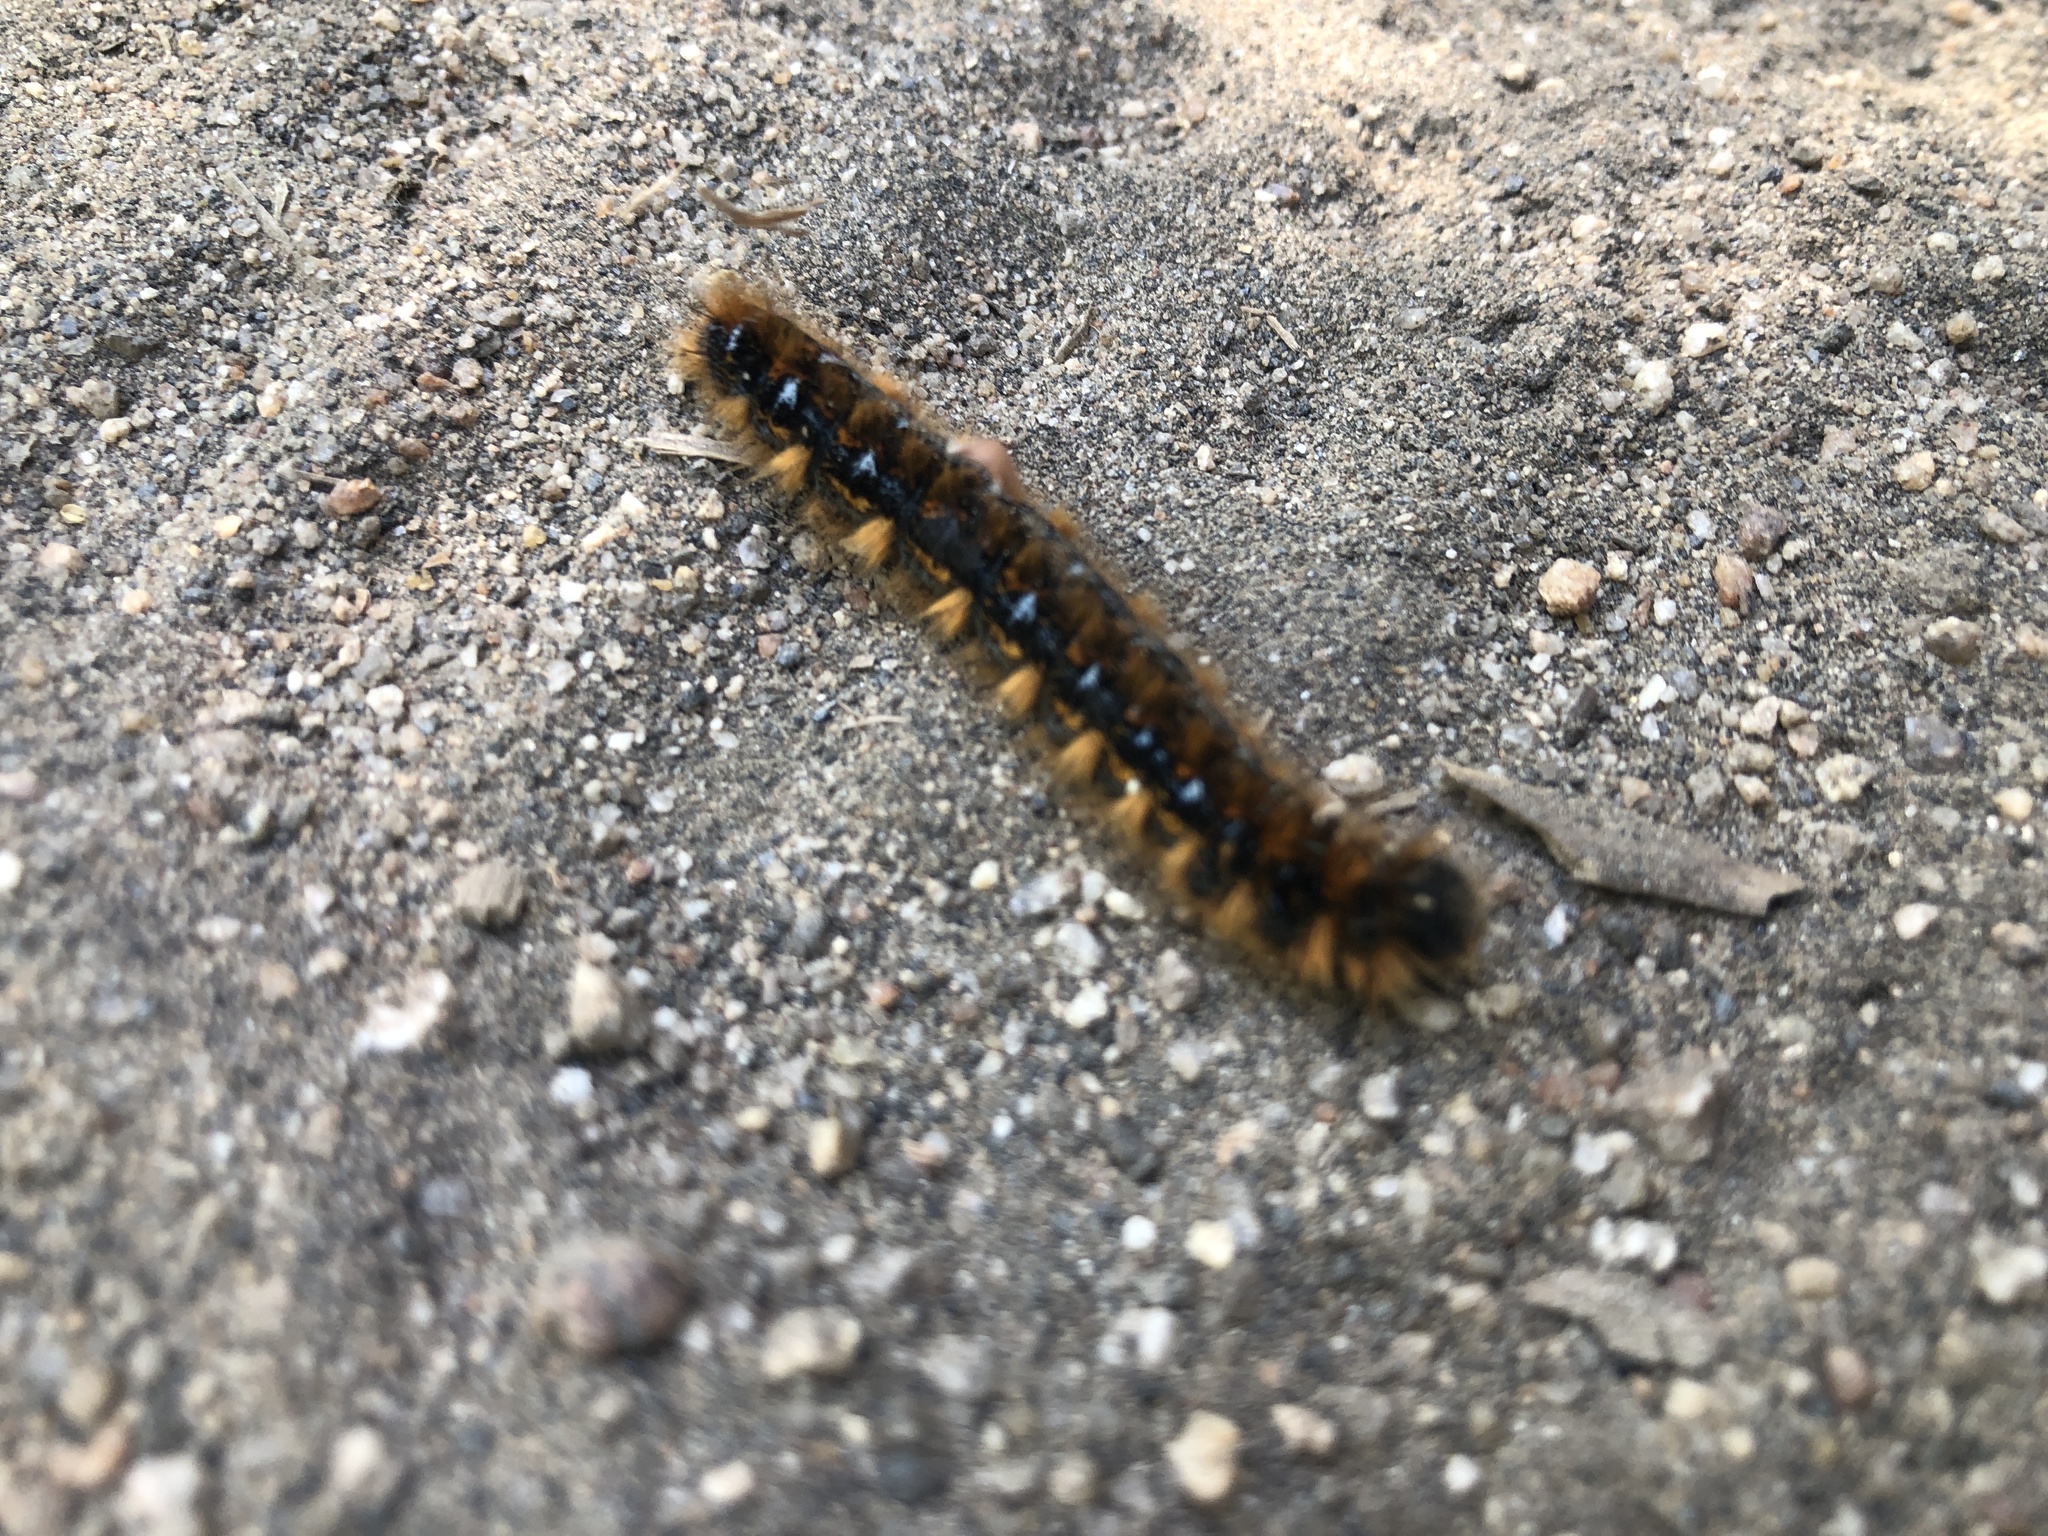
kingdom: Animalia
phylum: Arthropoda
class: Insecta
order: Lepidoptera
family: Lasiocampidae
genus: Malacosoma
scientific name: Malacosoma constricta
